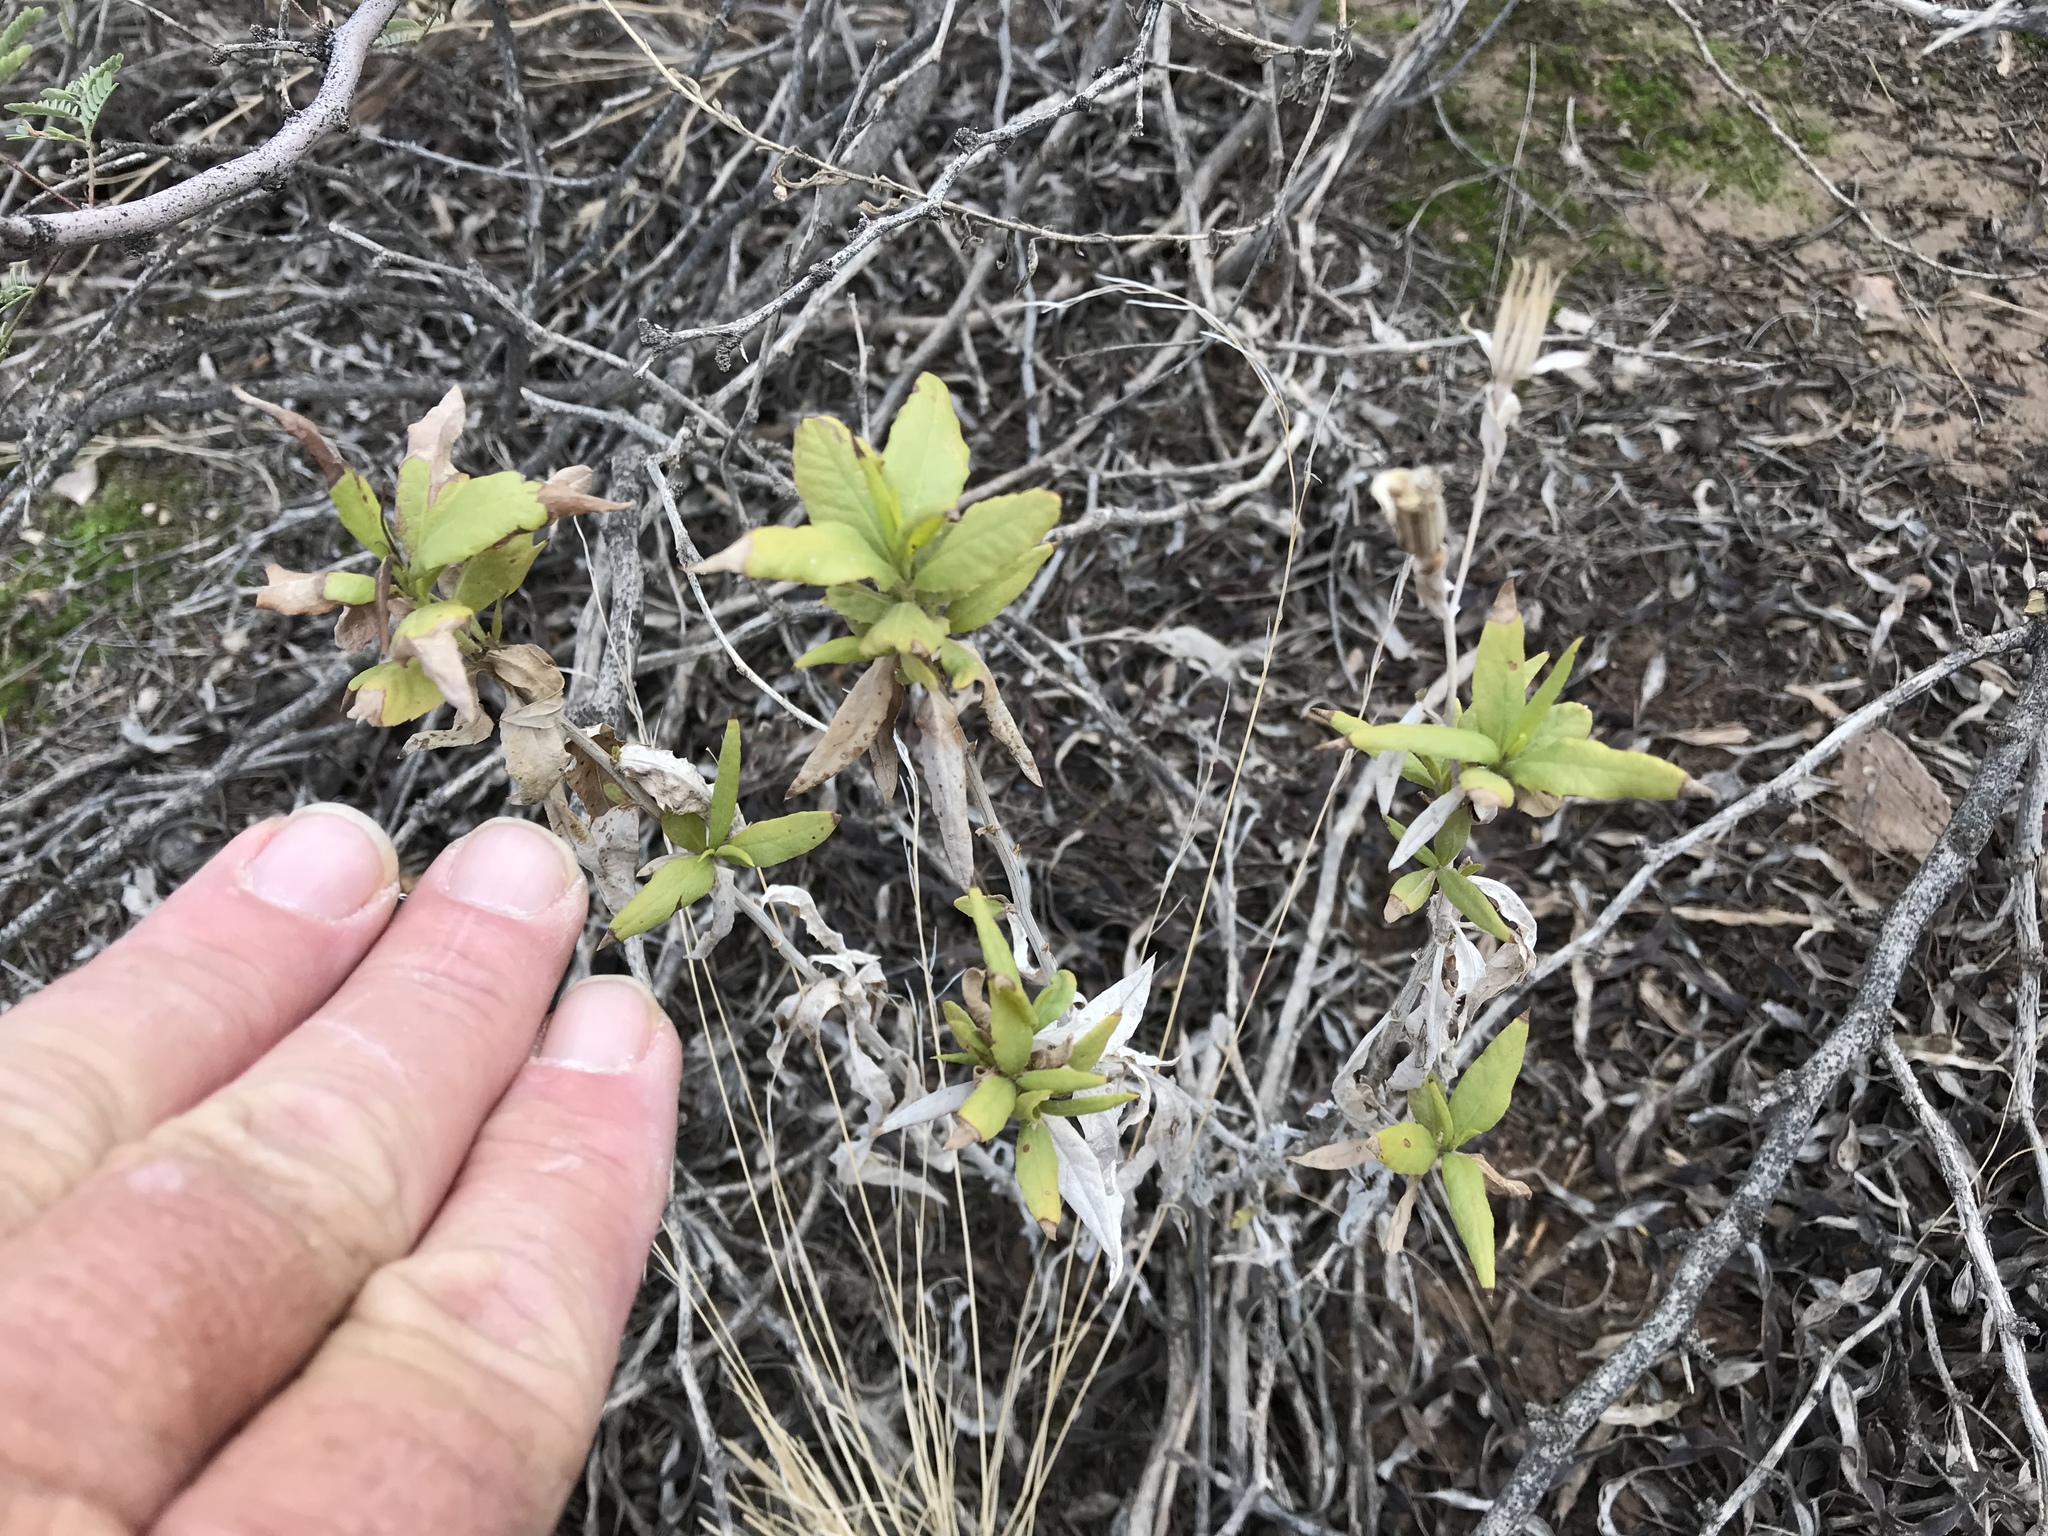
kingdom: Plantae
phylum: Tracheophyta
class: Magnoliopsida
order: Asterales
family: Asteraceae
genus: Trixis
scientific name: Trixis californica
